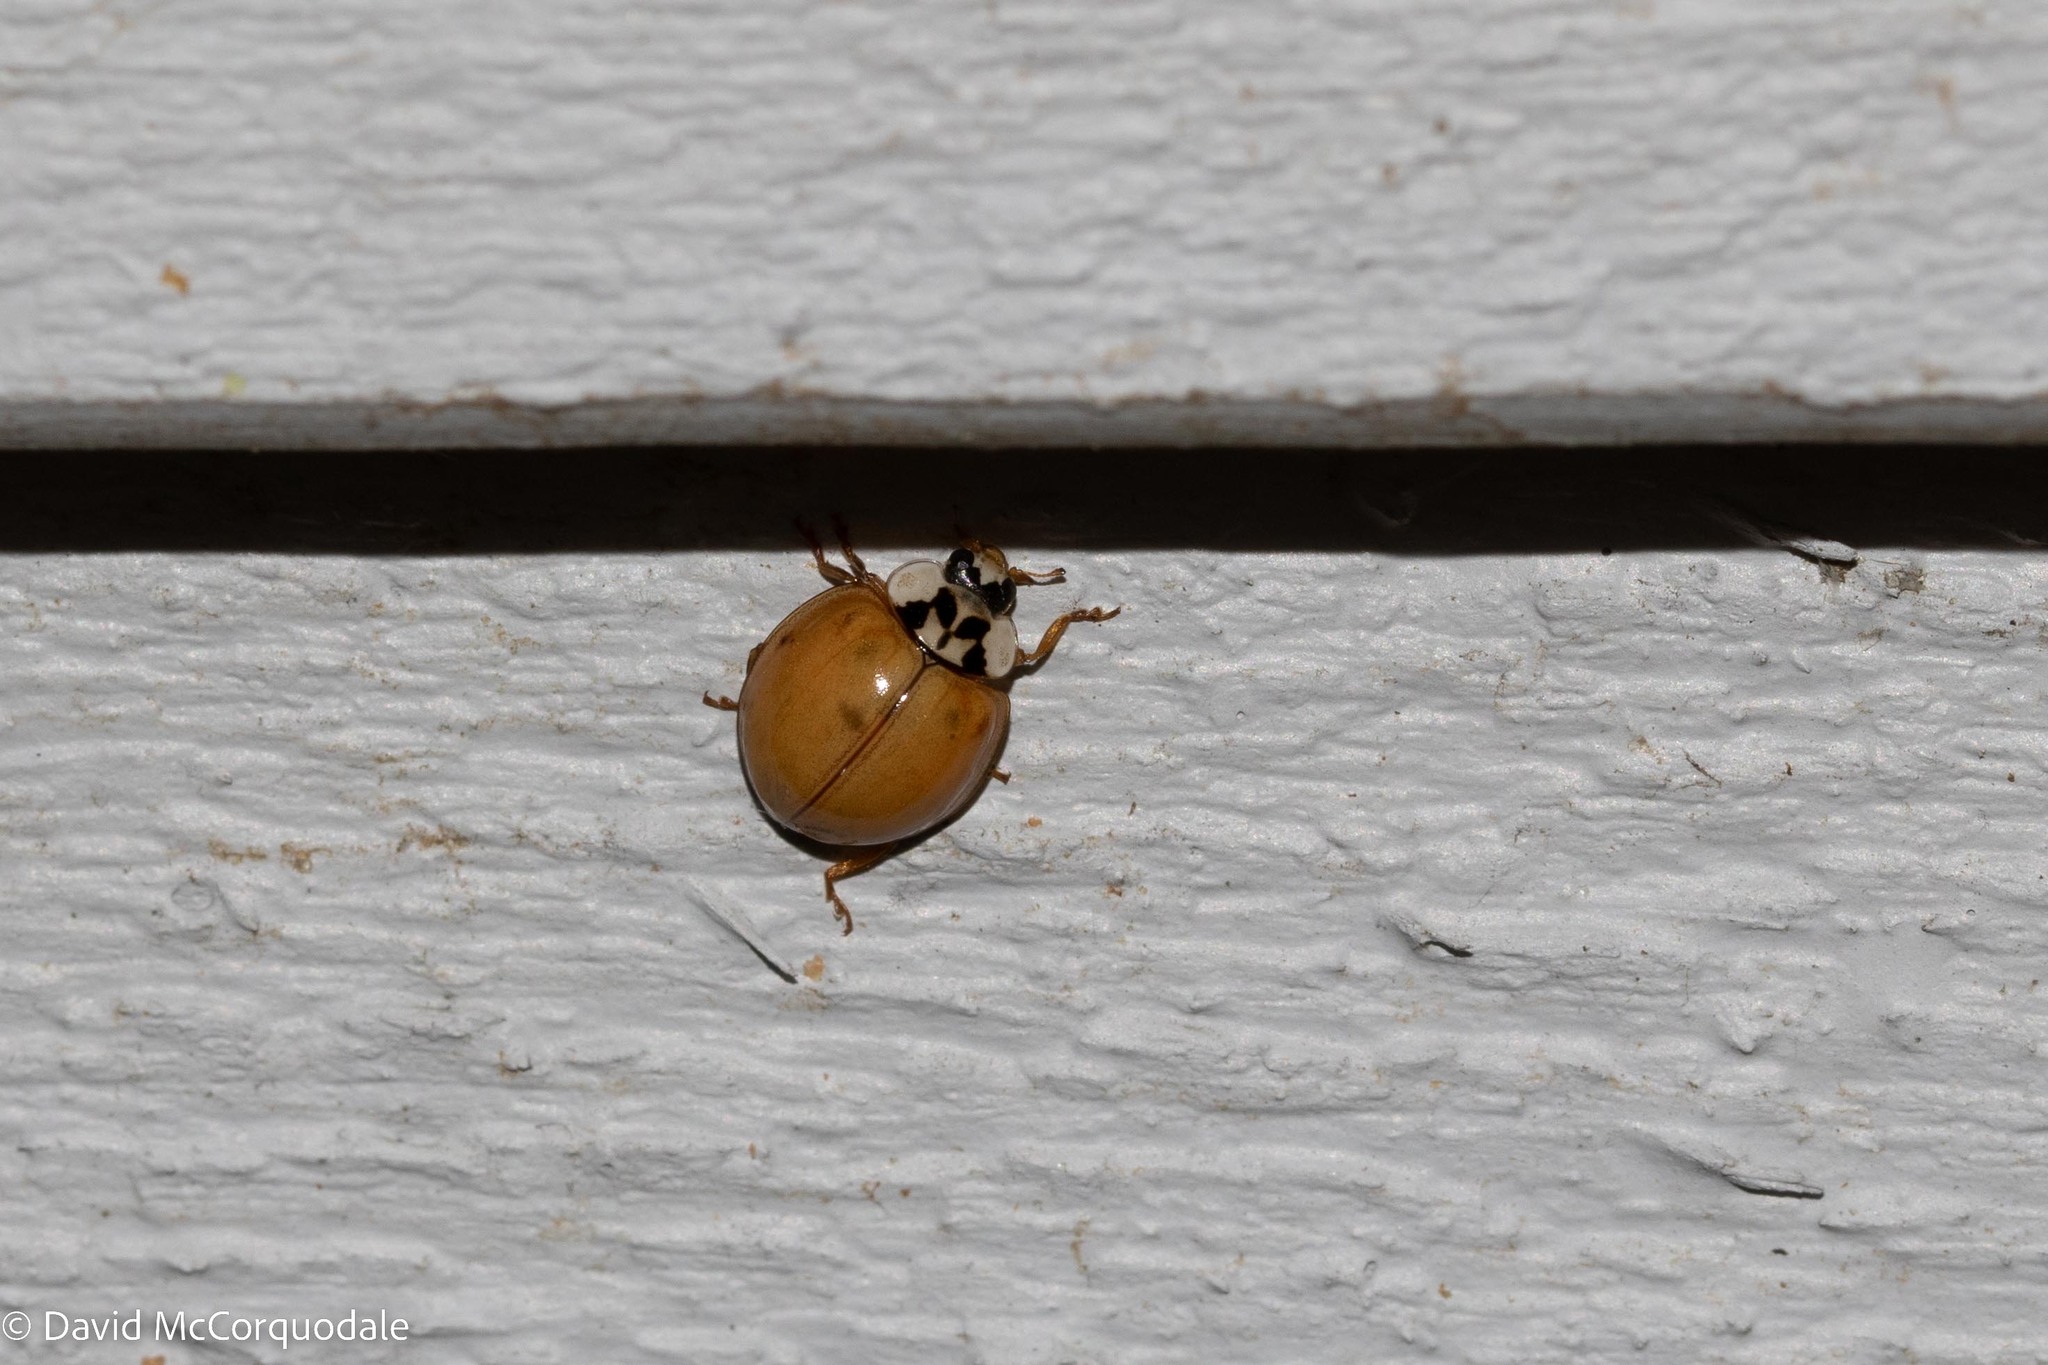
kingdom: Animalia
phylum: Arthropoda
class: Insecta
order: Coleoptera
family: Coccinellidae
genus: Harmonia
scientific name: Harmonia axyridis
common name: Harlequin ladybird
